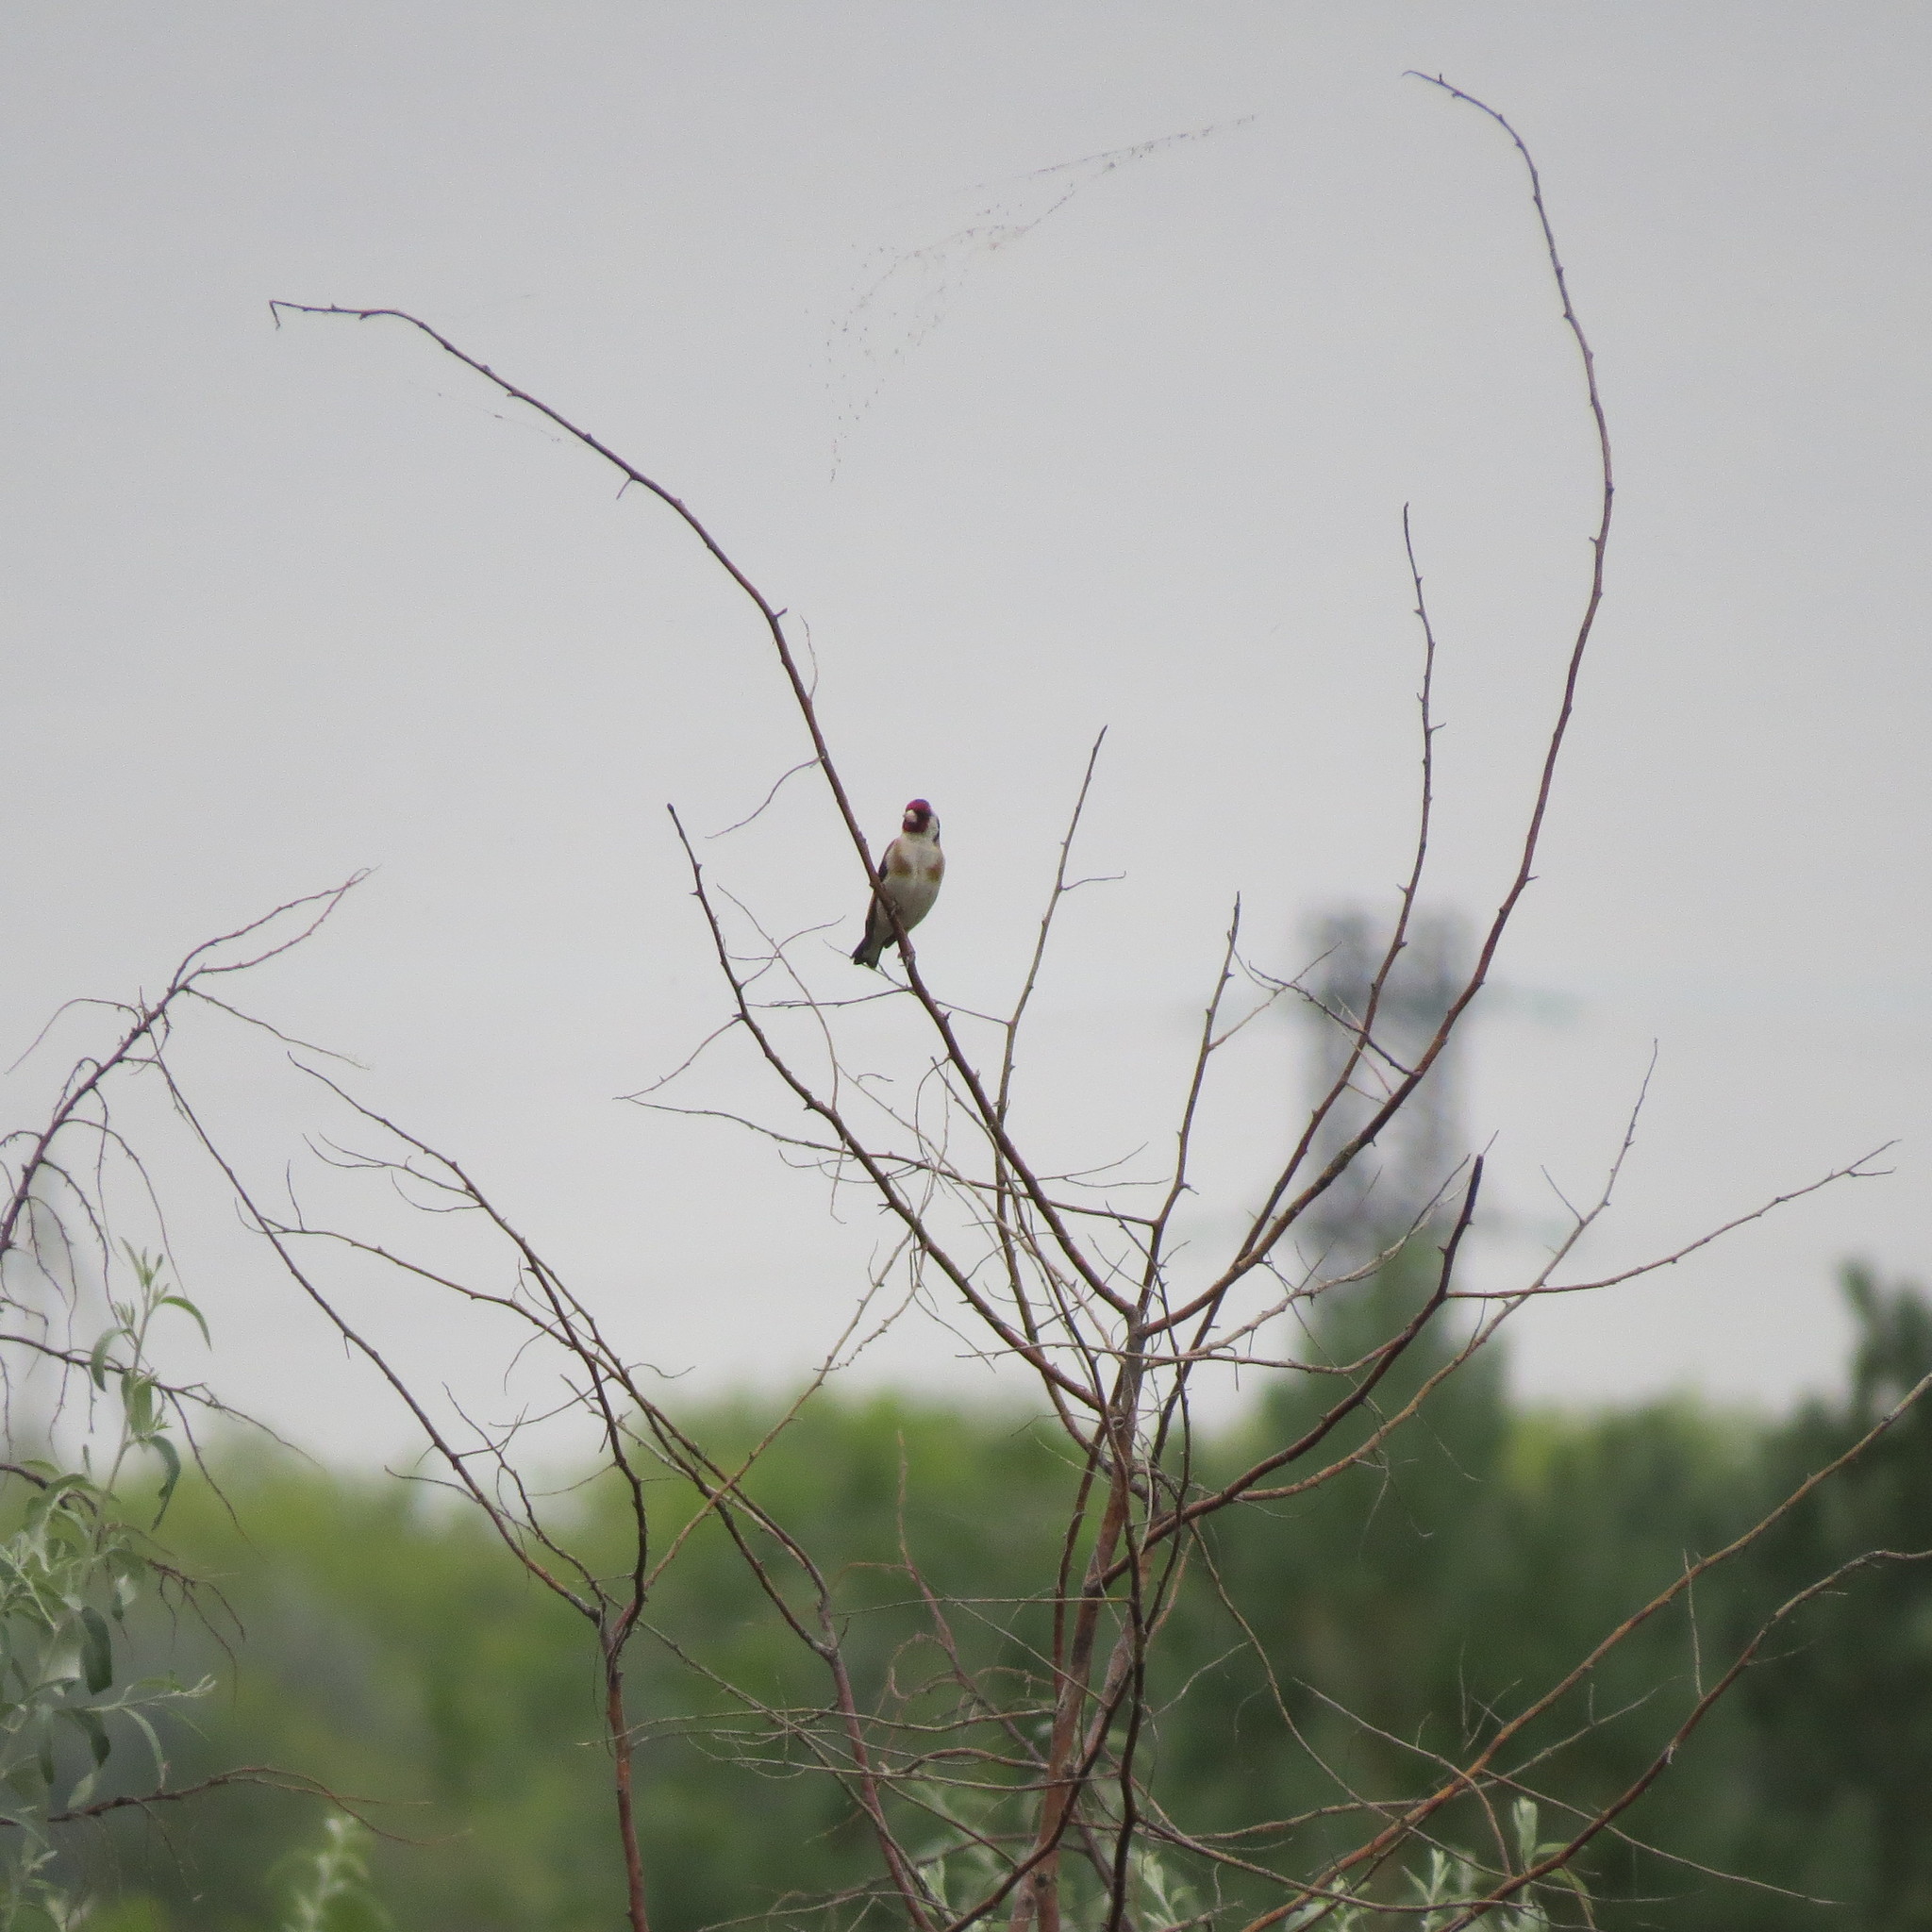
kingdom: Animalia
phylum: Chordata
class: Aves
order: Passeriformes
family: Fringillidae
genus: Carduelis
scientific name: Carduelis carduelis
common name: European goldfinch
